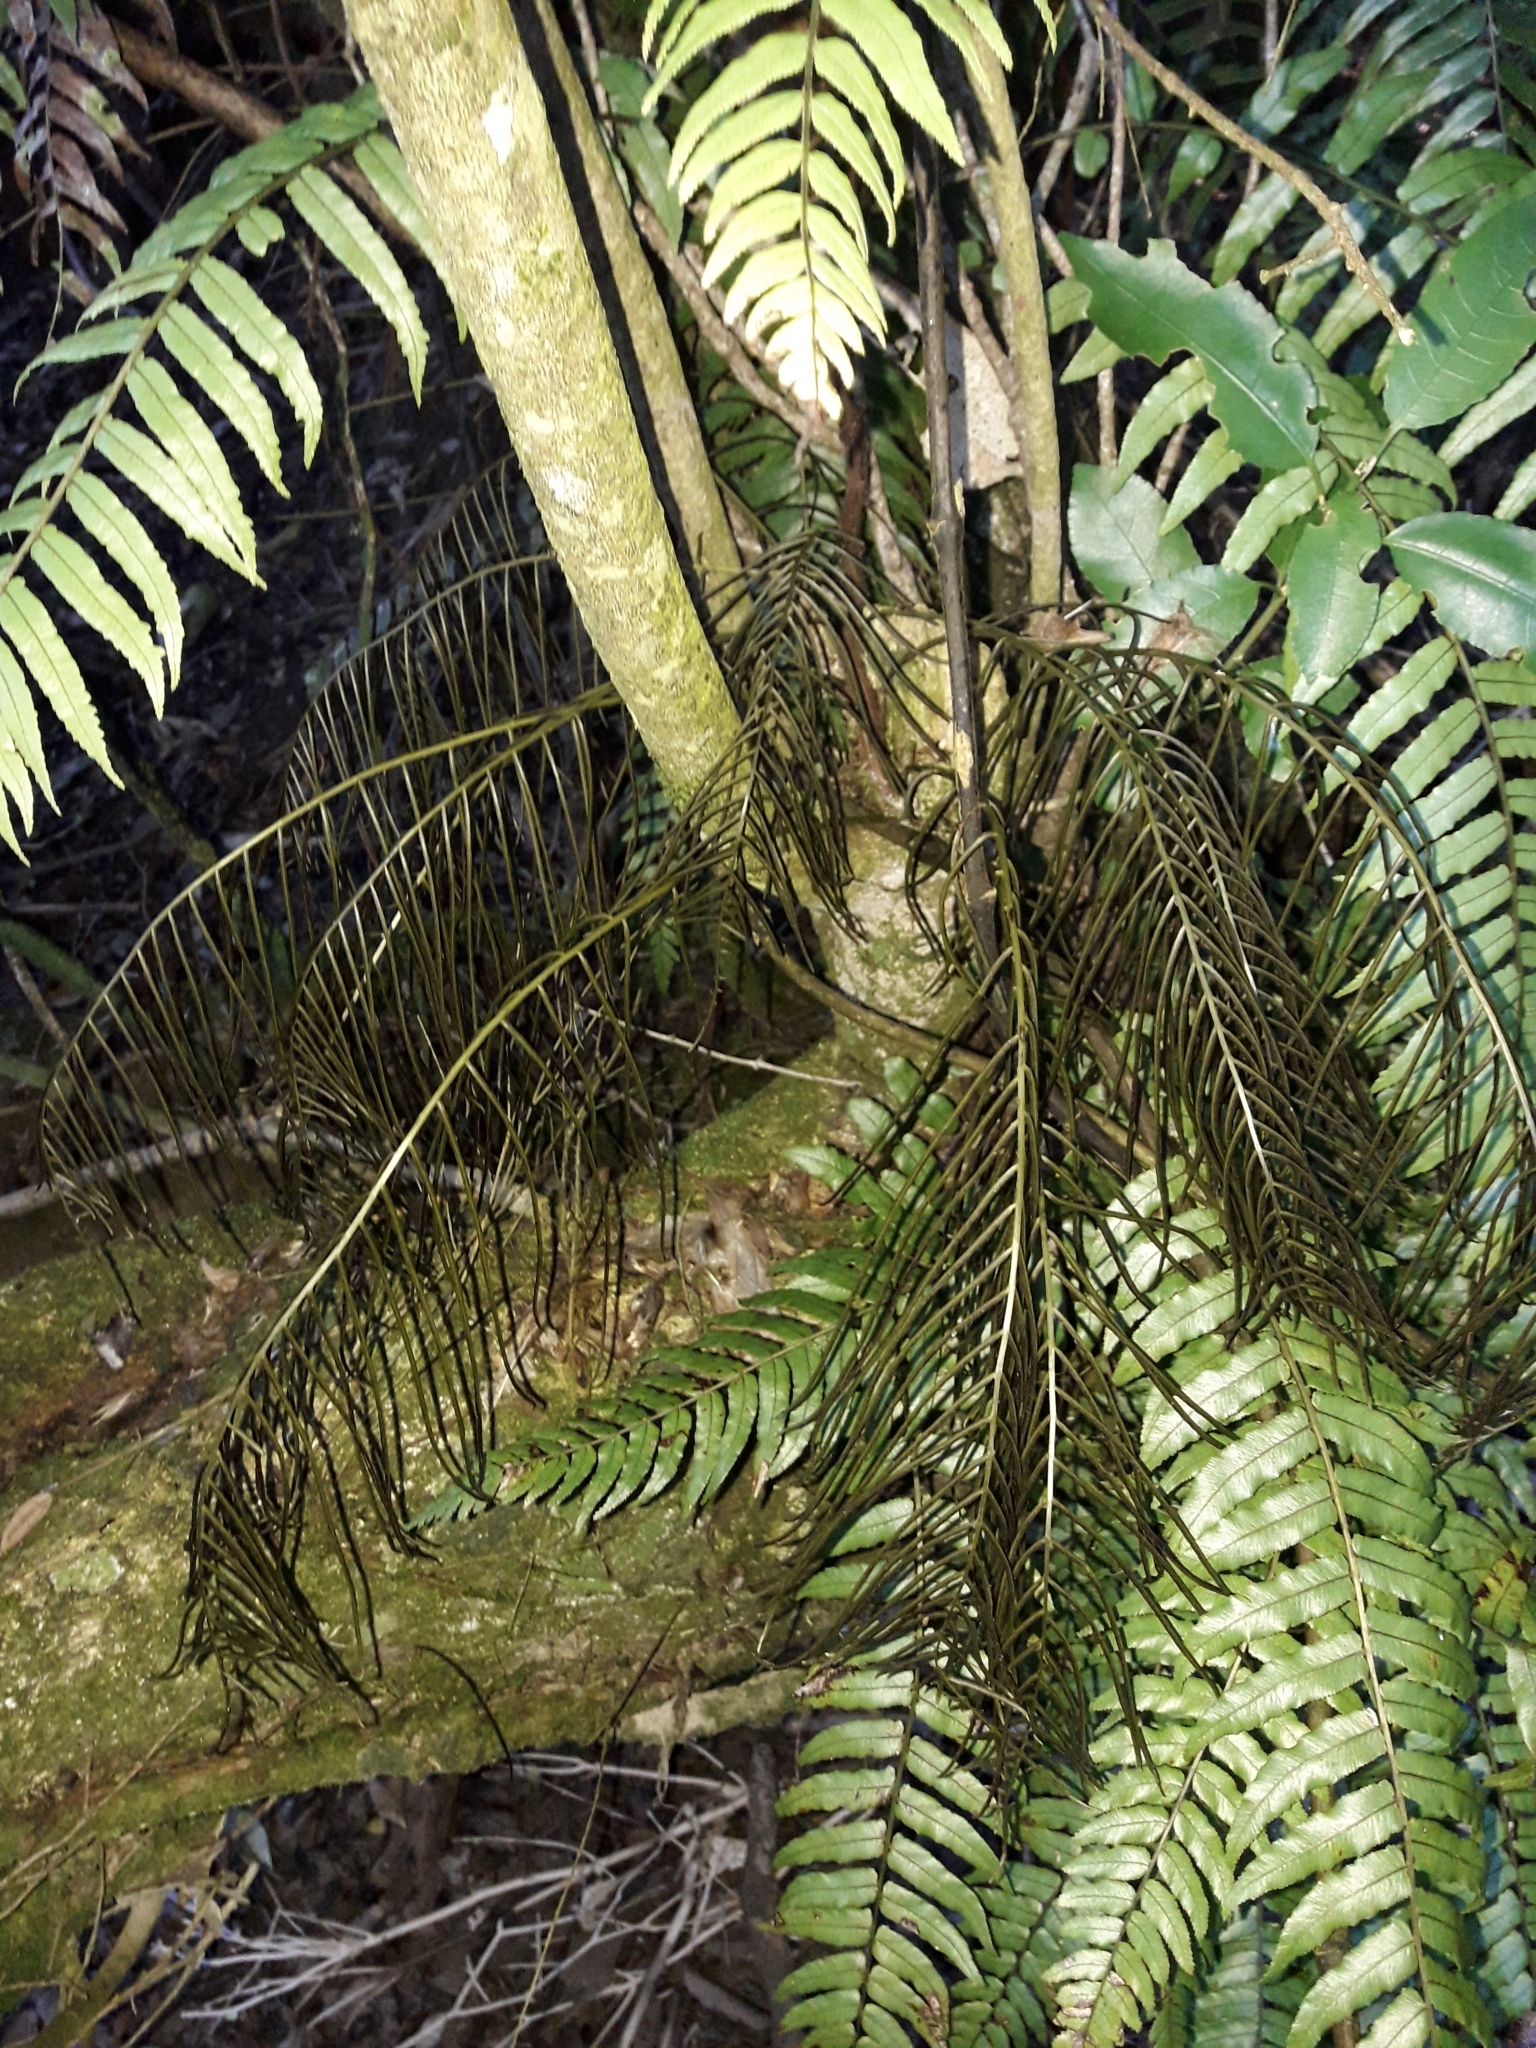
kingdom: Plantae
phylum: Tracheophyta
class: Polypodiopsida
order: Polypodiales
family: Blechnaceae
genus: Icarus
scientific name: Icarus filiformis
